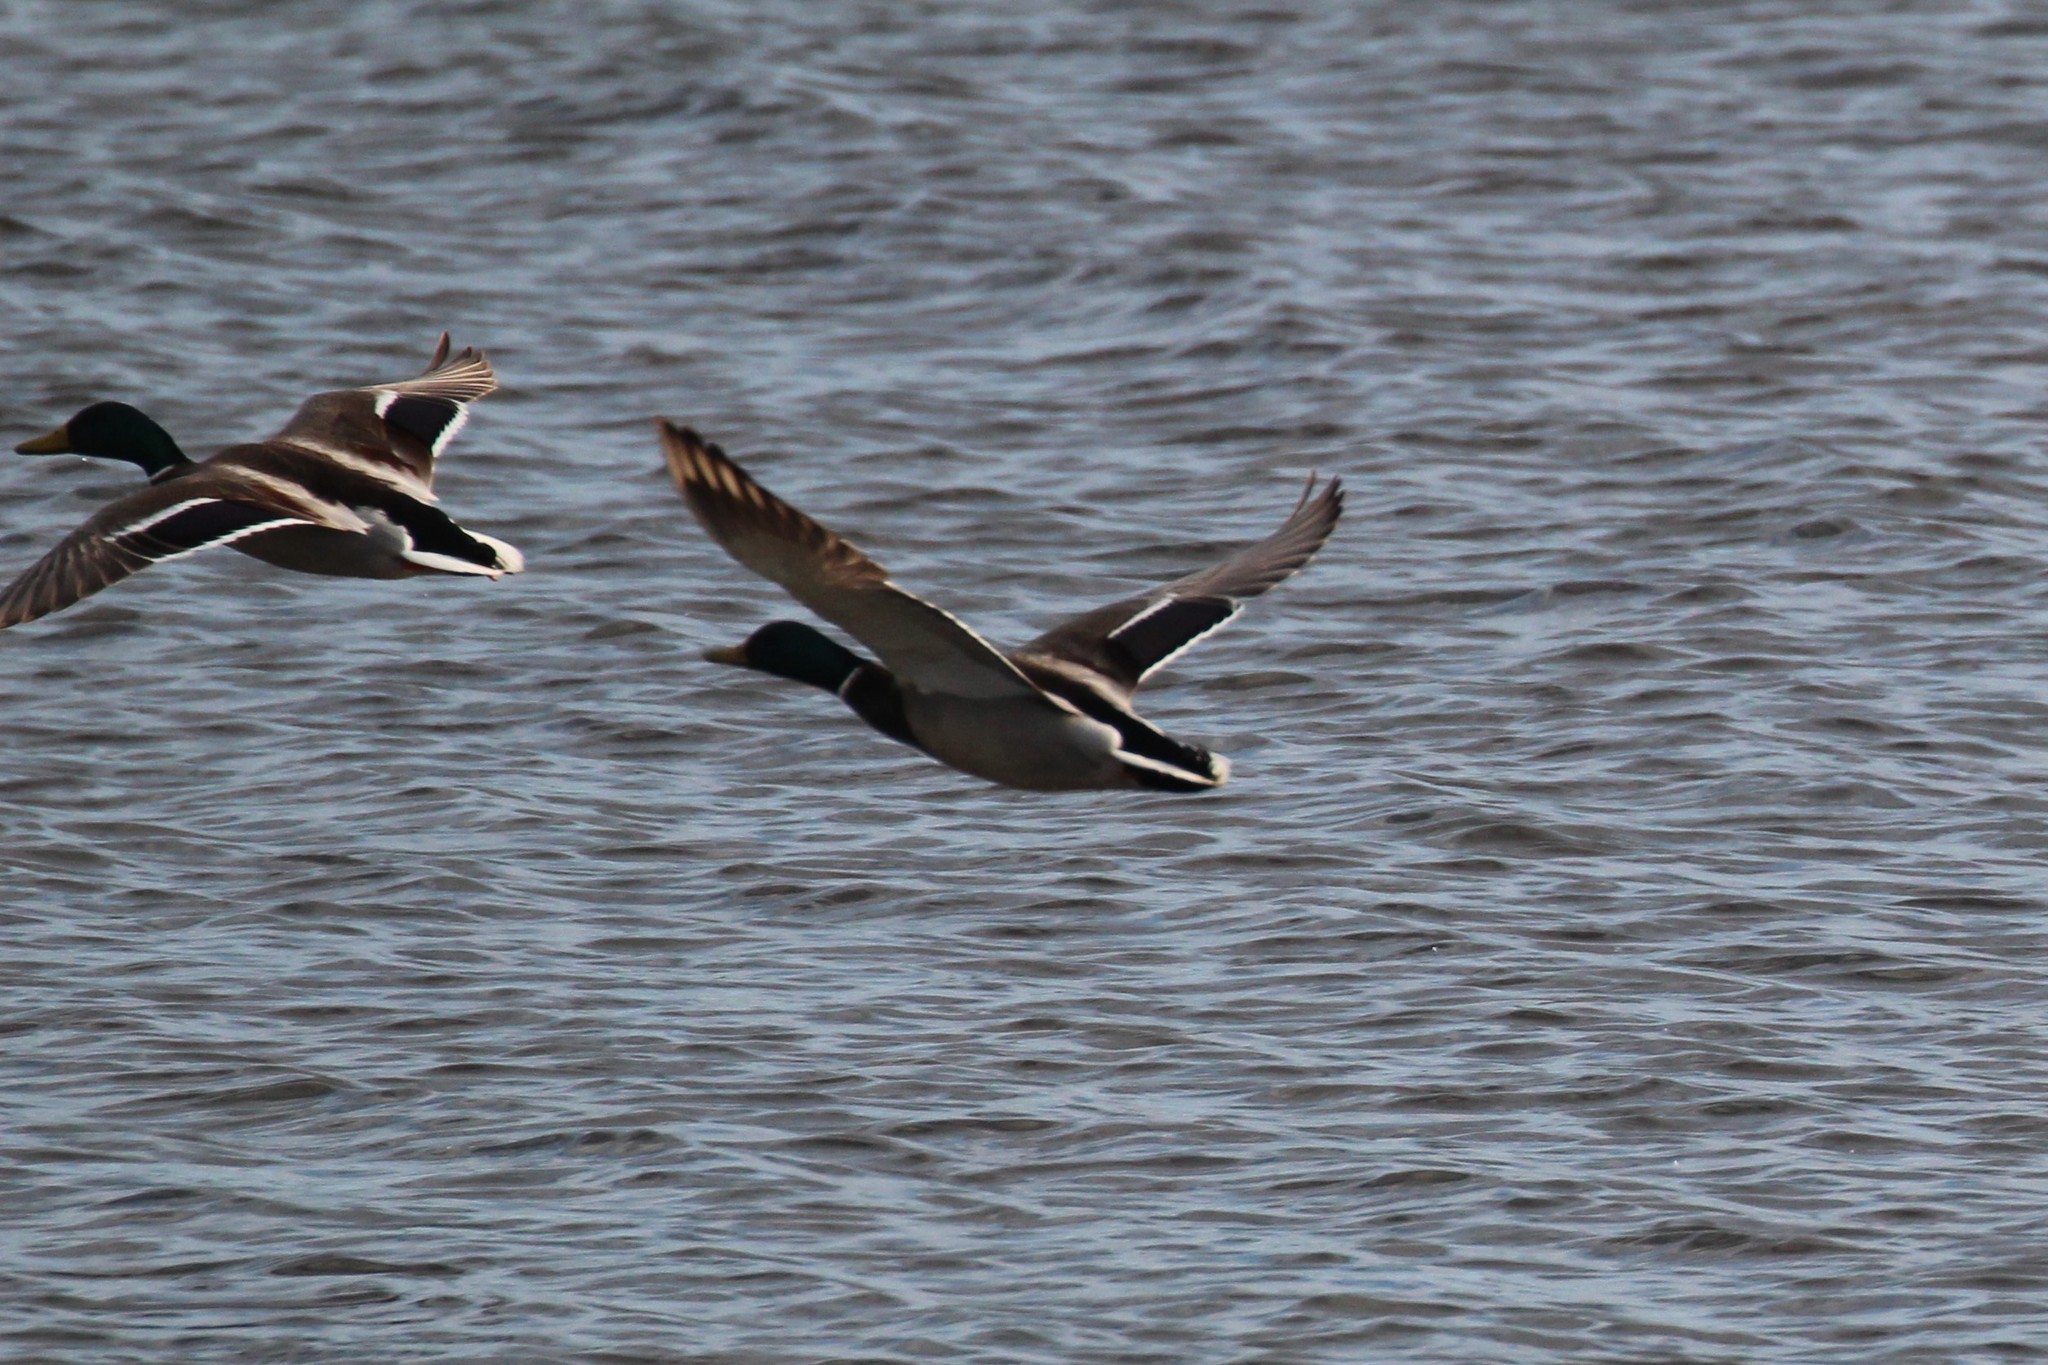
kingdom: Animalia
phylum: Chordata
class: Aves
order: Anseriformes
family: Anatidae
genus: Anas
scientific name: Anas platyrhynchos
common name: Mallard
